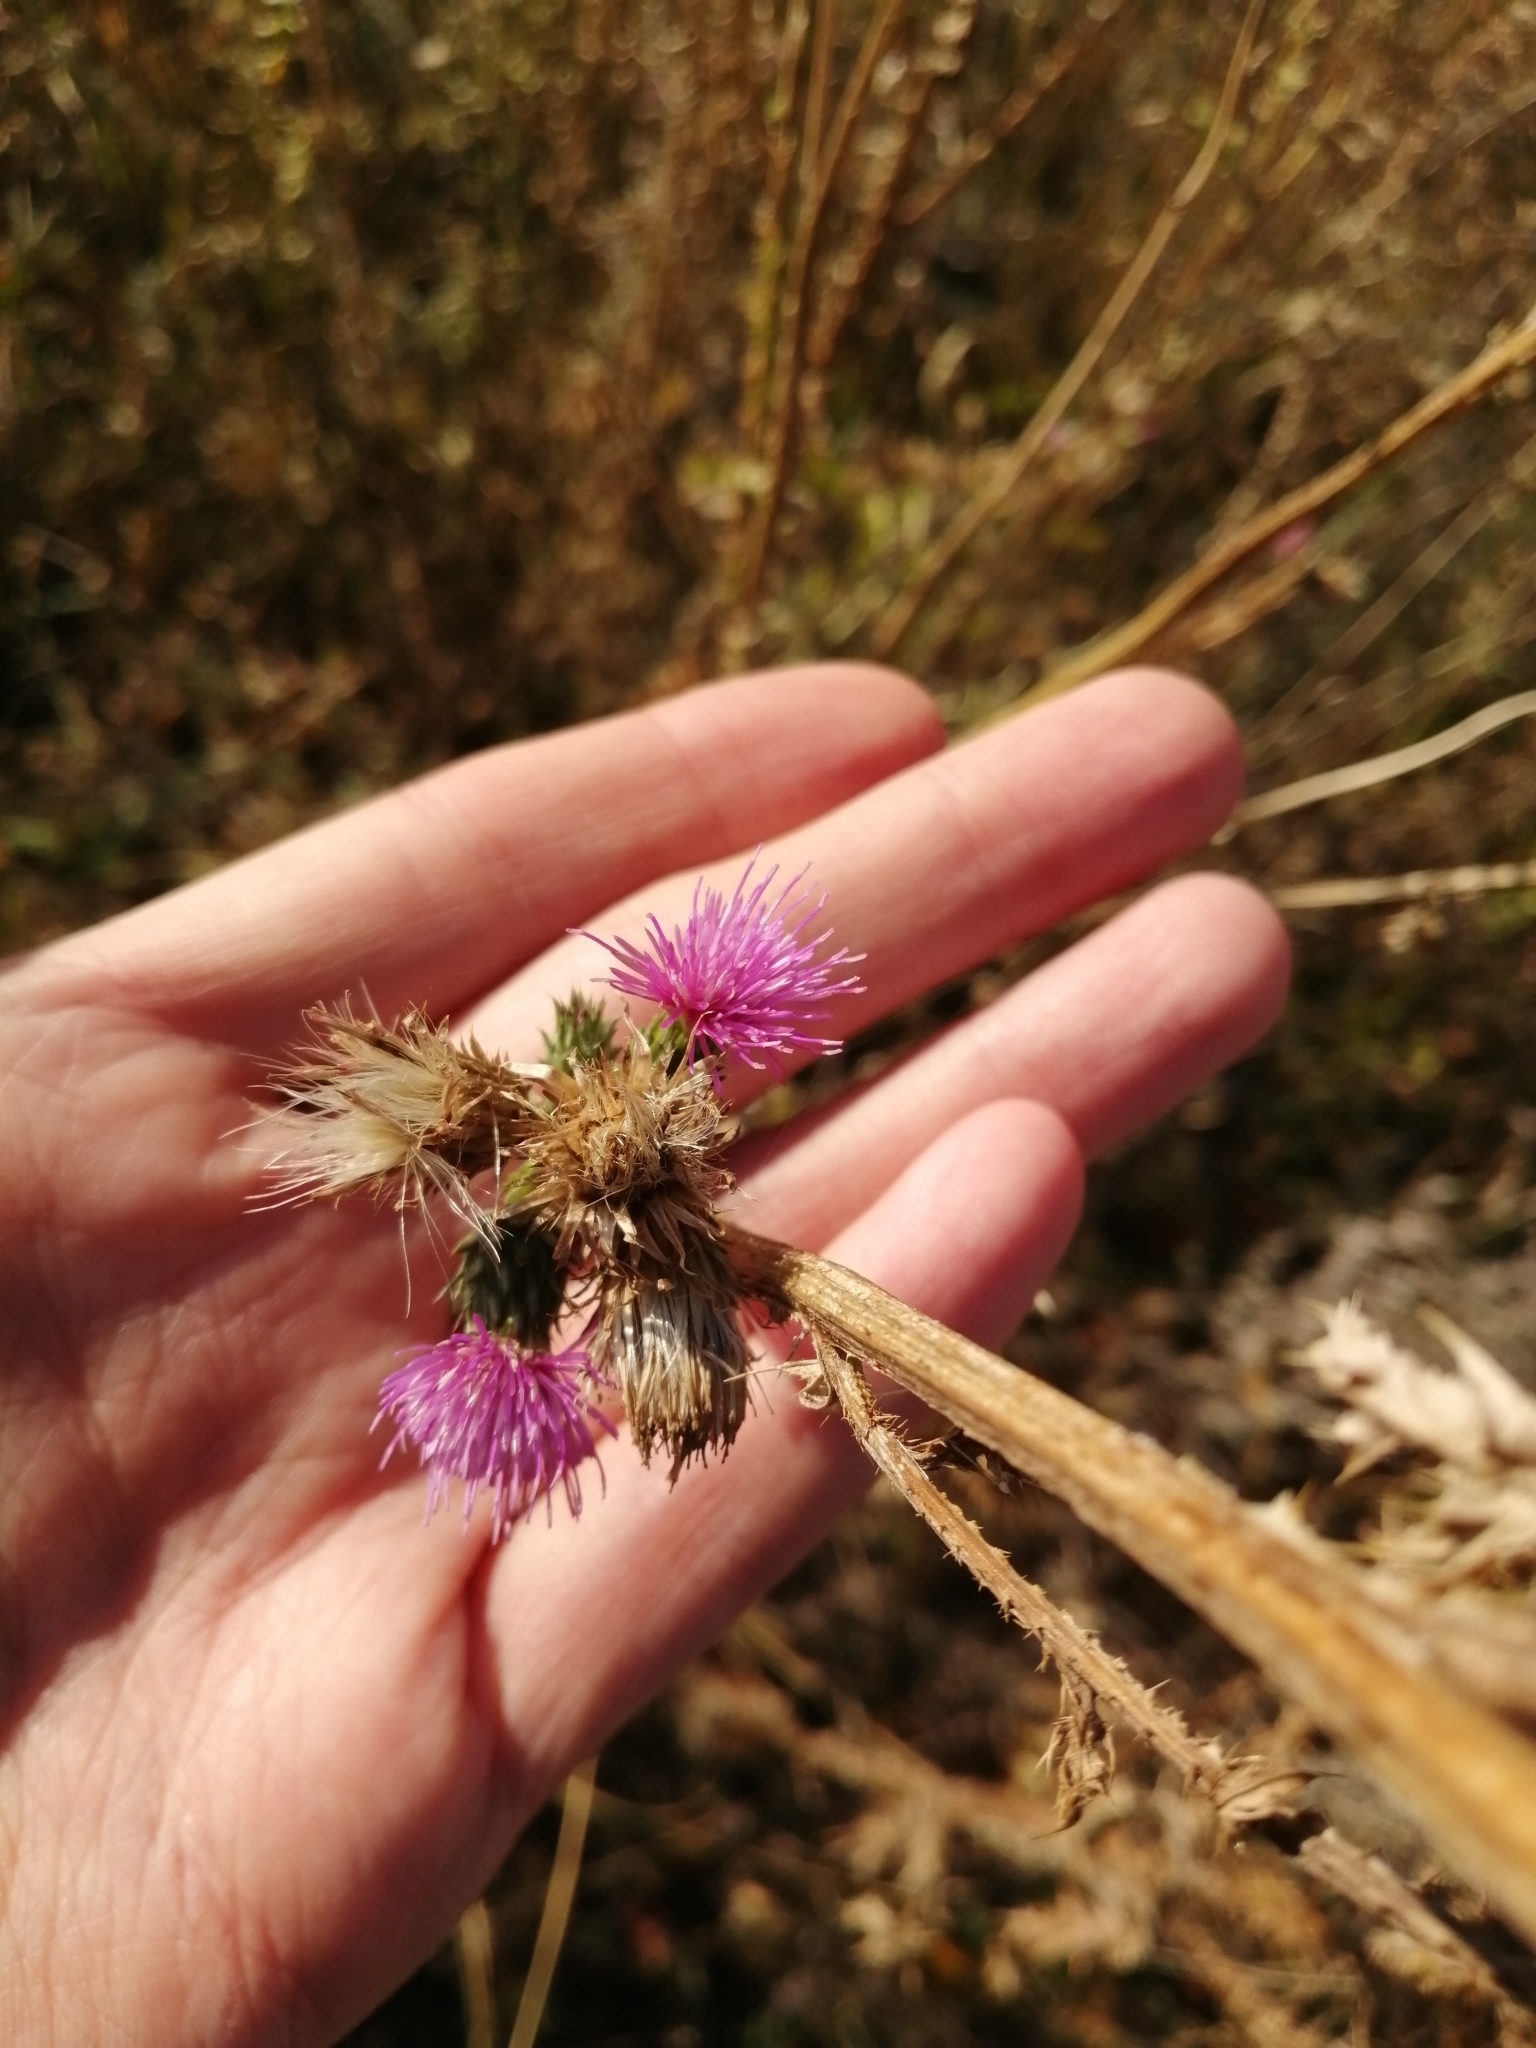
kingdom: Plantae
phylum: Tracheophyta
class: Magnoliopsida
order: Asterales
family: Asteraceae
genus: Carduus
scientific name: Carduus acanthoides
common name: Plumeless thistle
